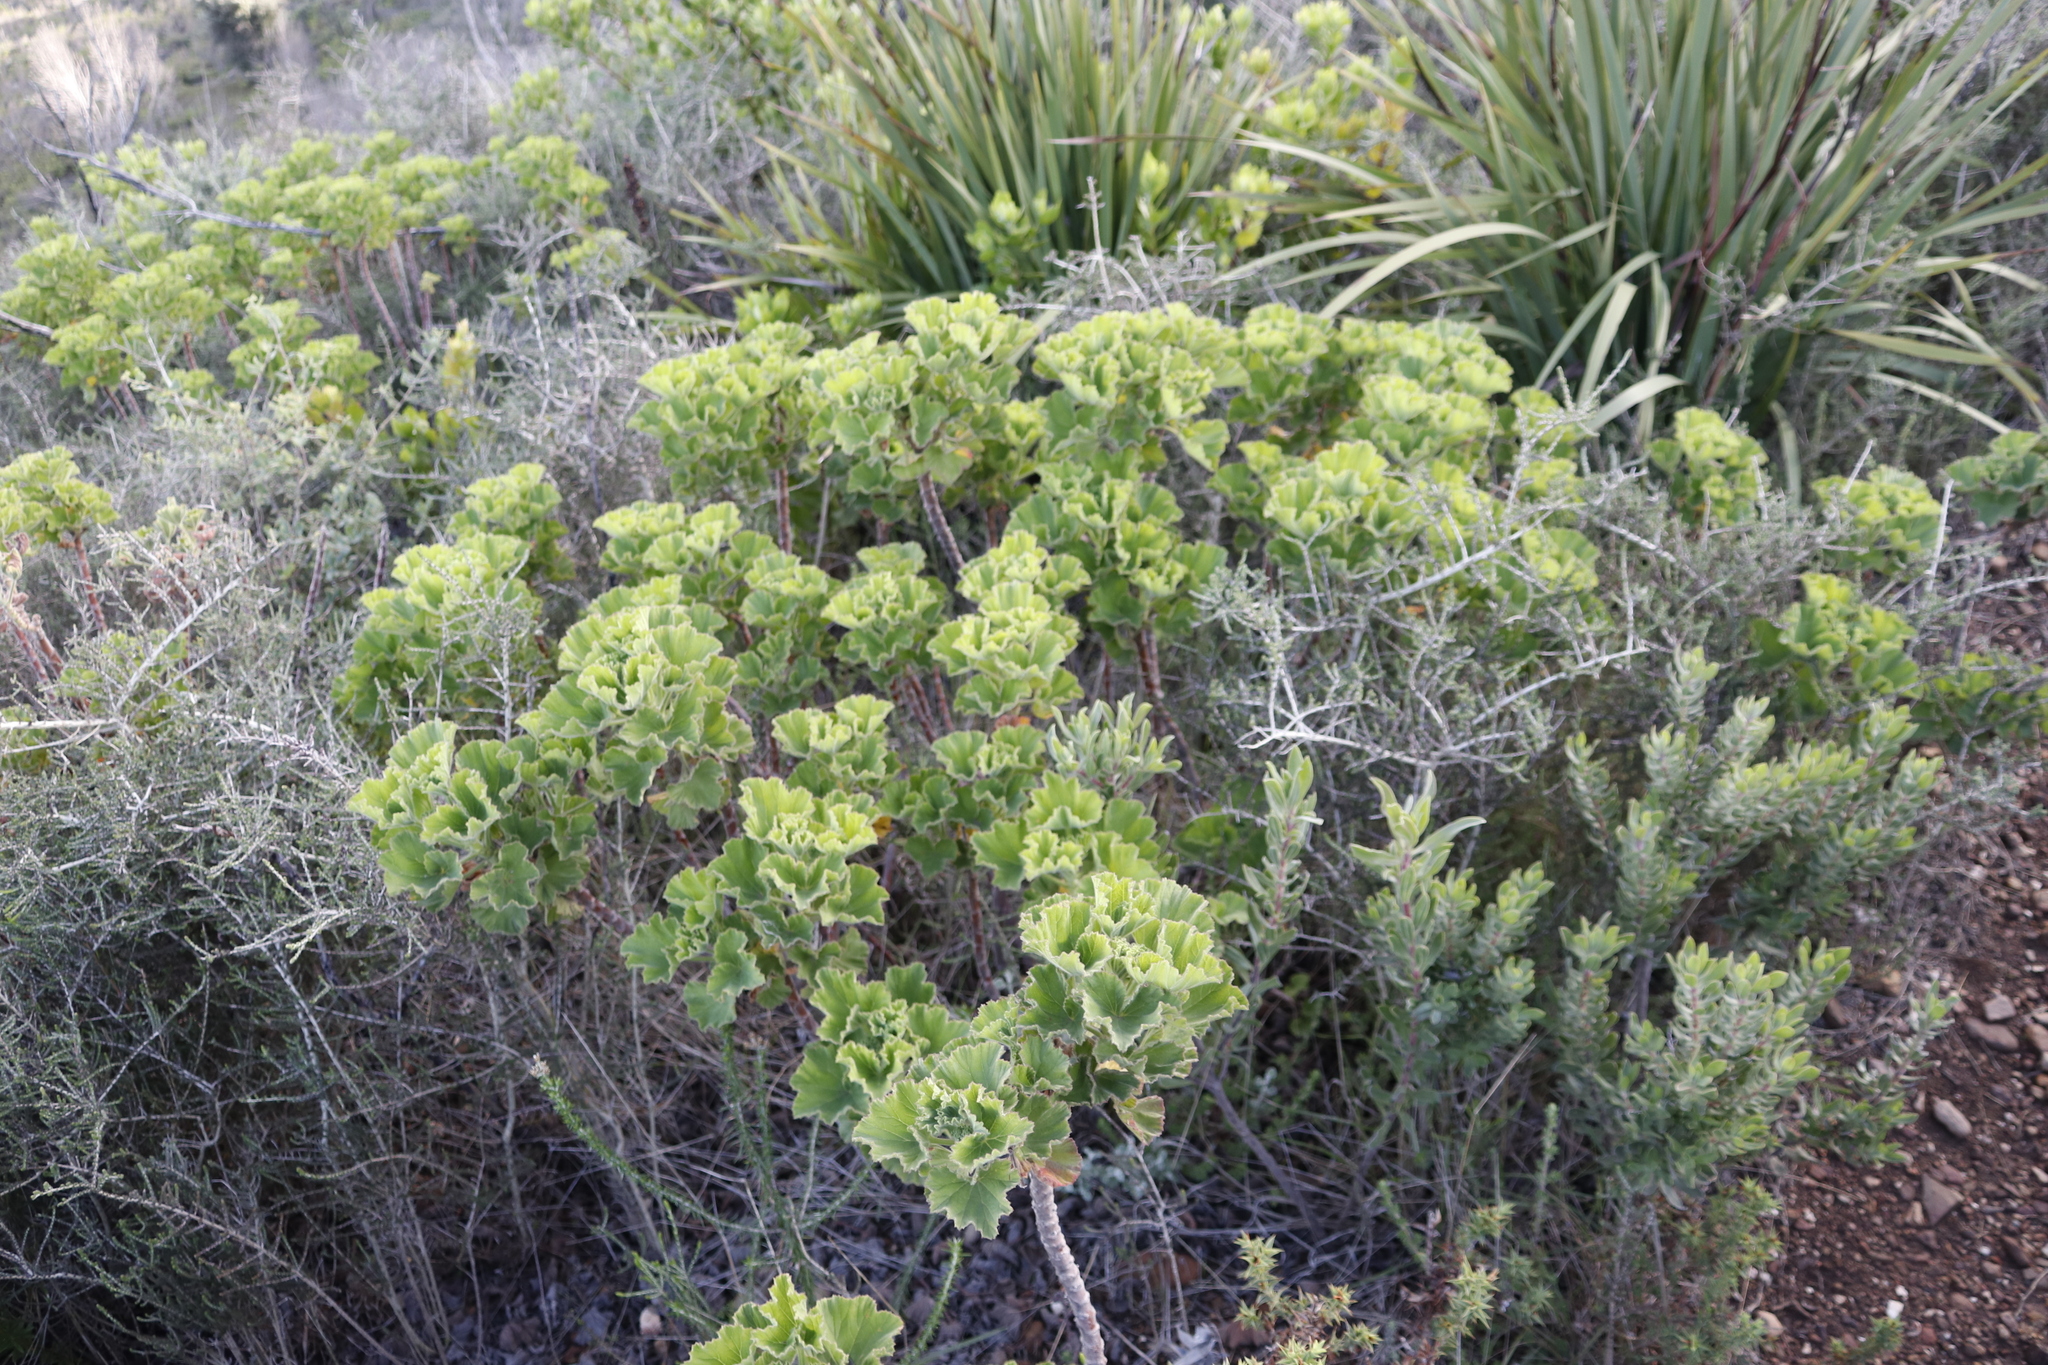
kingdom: Plantae
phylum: Tracheophyta
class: Magnoliopsida
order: Geraniales
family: Geraniaceae
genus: Pelargonium
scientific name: Pelargonium cucullatum
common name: Tree pelargonium
